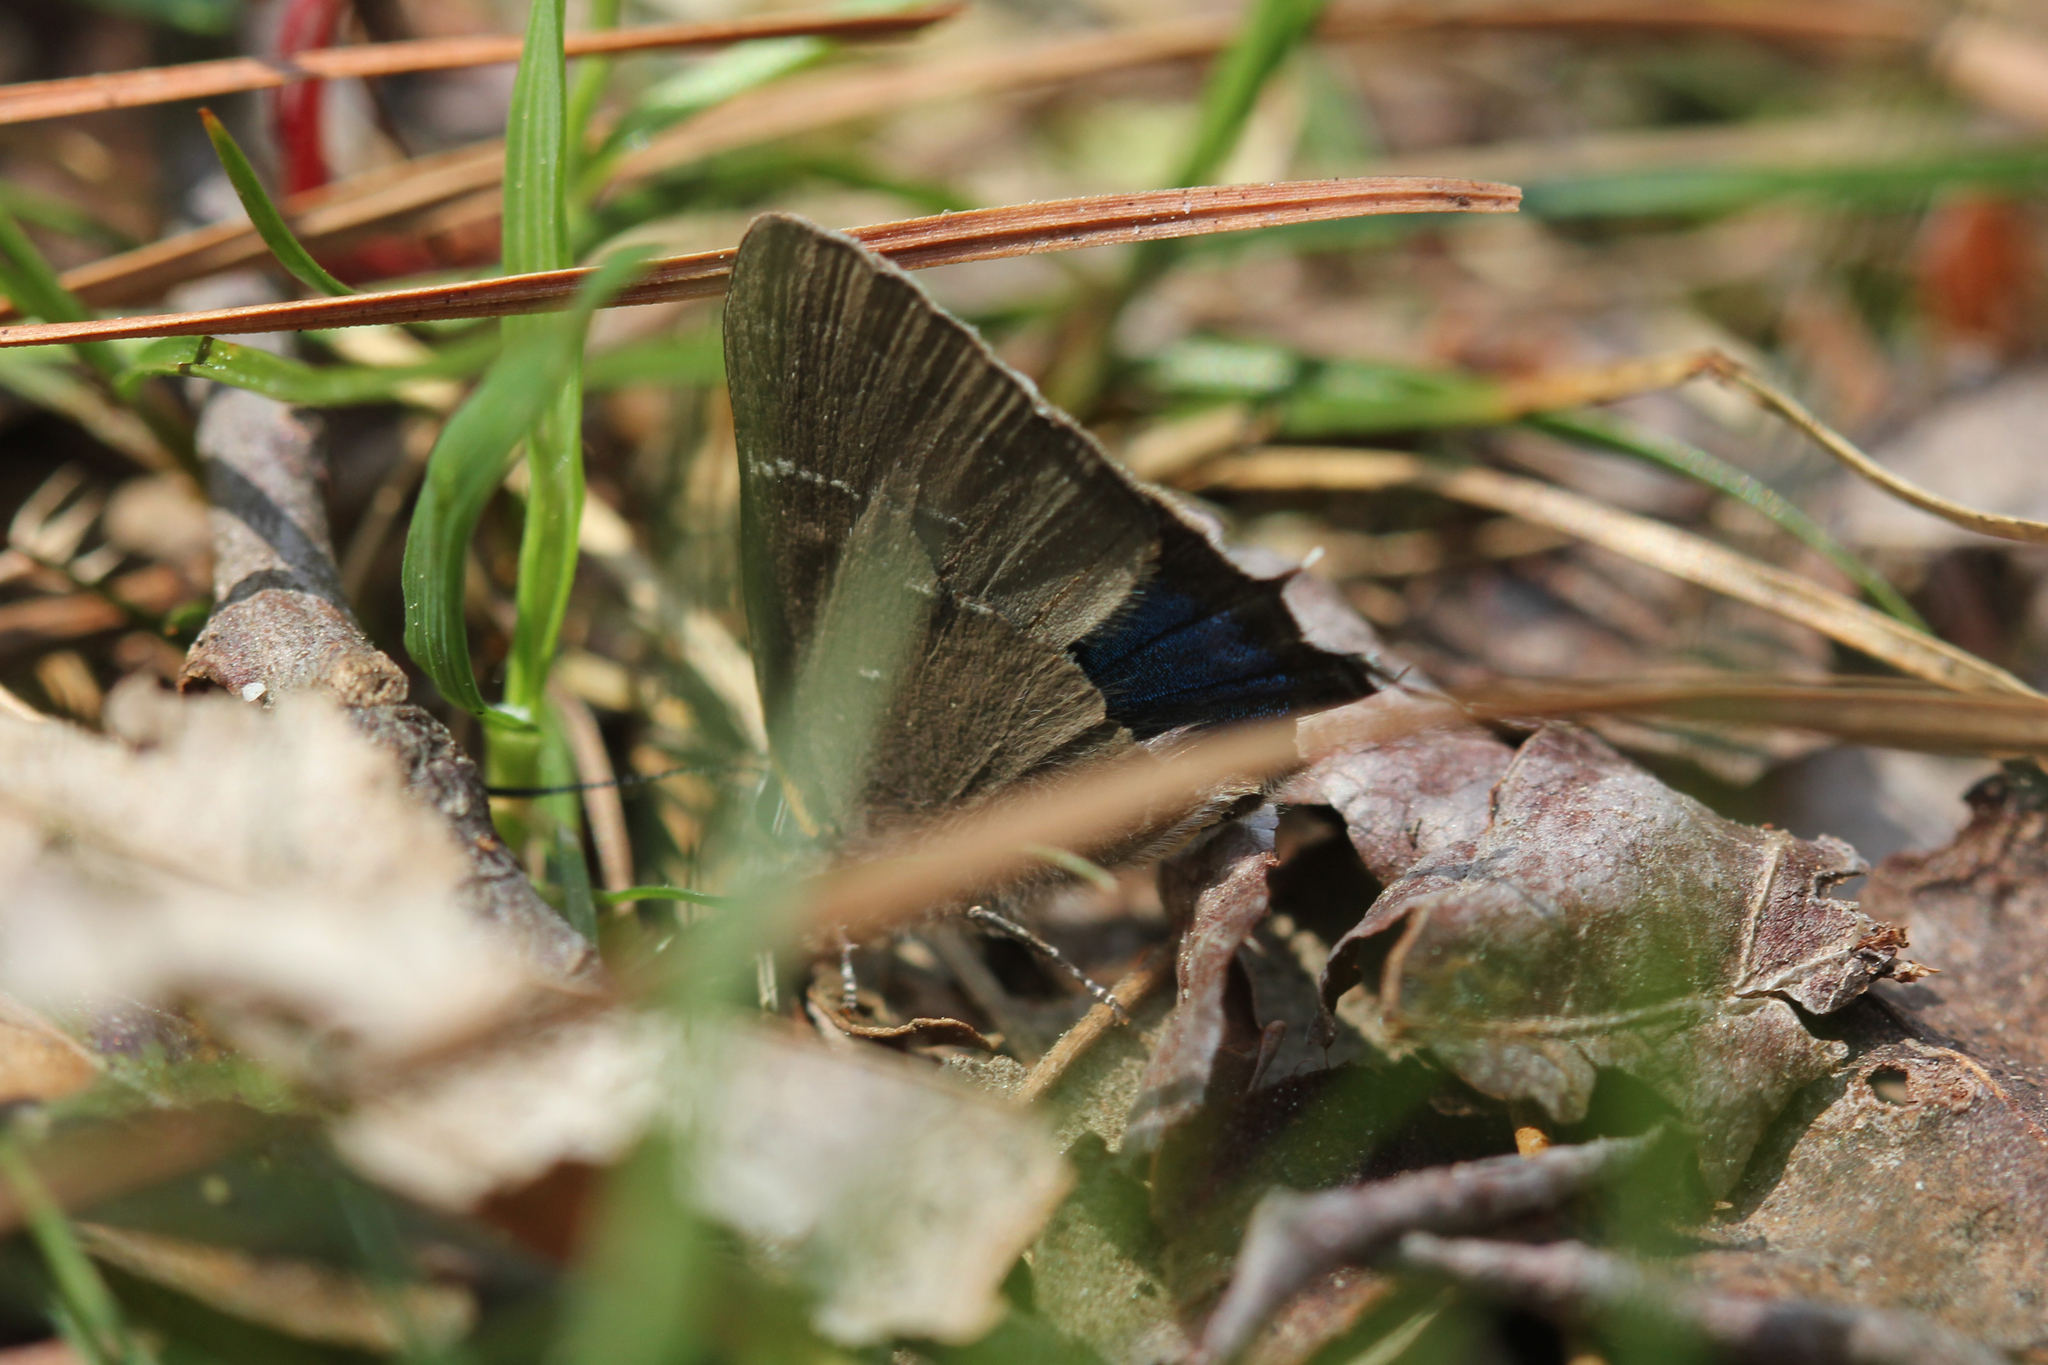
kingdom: Animalia
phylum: Arthropoda
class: Insecta
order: Lepidoptera
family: Lycaenidae
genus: Parrhasius
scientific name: Parrhasius m-album
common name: White m hairstreak
